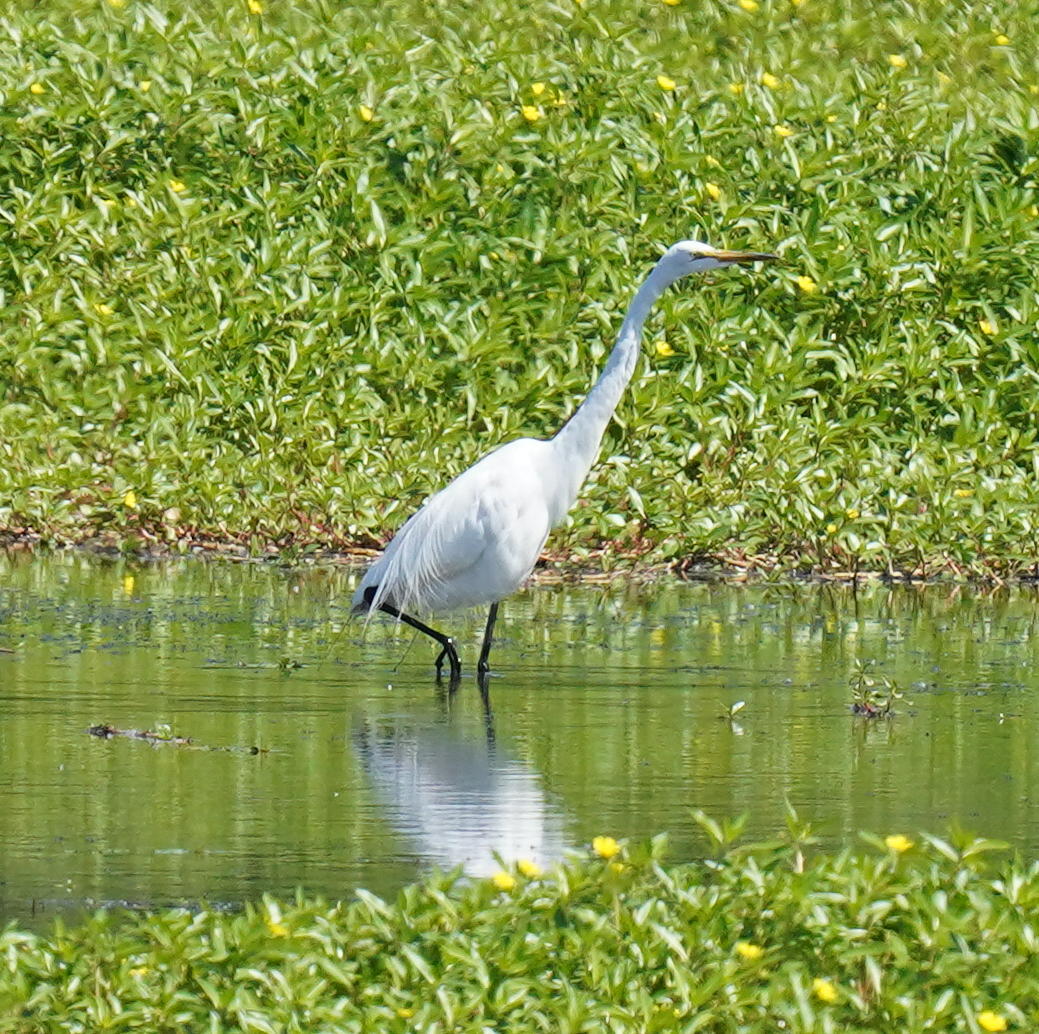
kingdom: Animalia
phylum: Chordata
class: Aves
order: Pelecaniformes
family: Ardeidae
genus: Ardea
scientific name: Ardea alba
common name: Great egret
